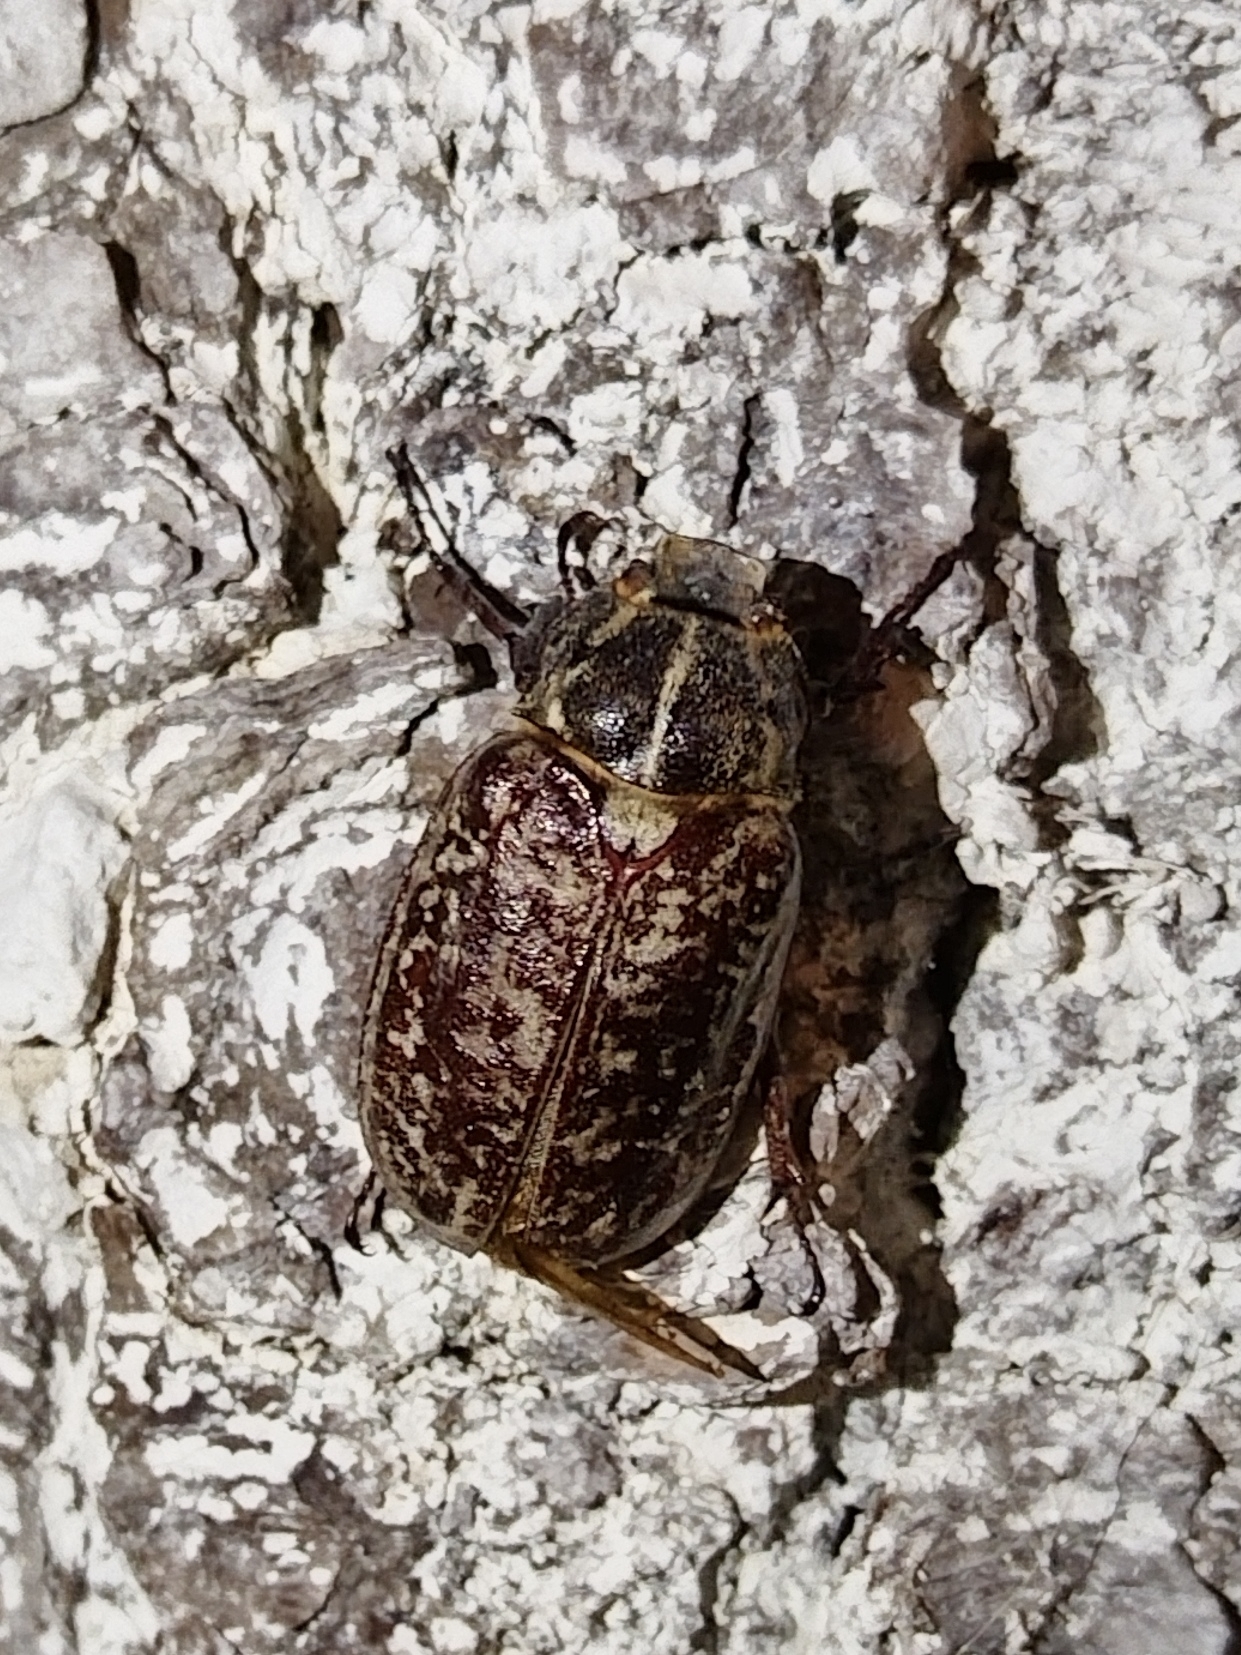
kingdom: Animalia
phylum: Arthropoda
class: Insecta
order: Coleoptera
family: Scarabaeidae
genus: Polyphylla
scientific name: Polyphylla fullo
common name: Pine chafer
